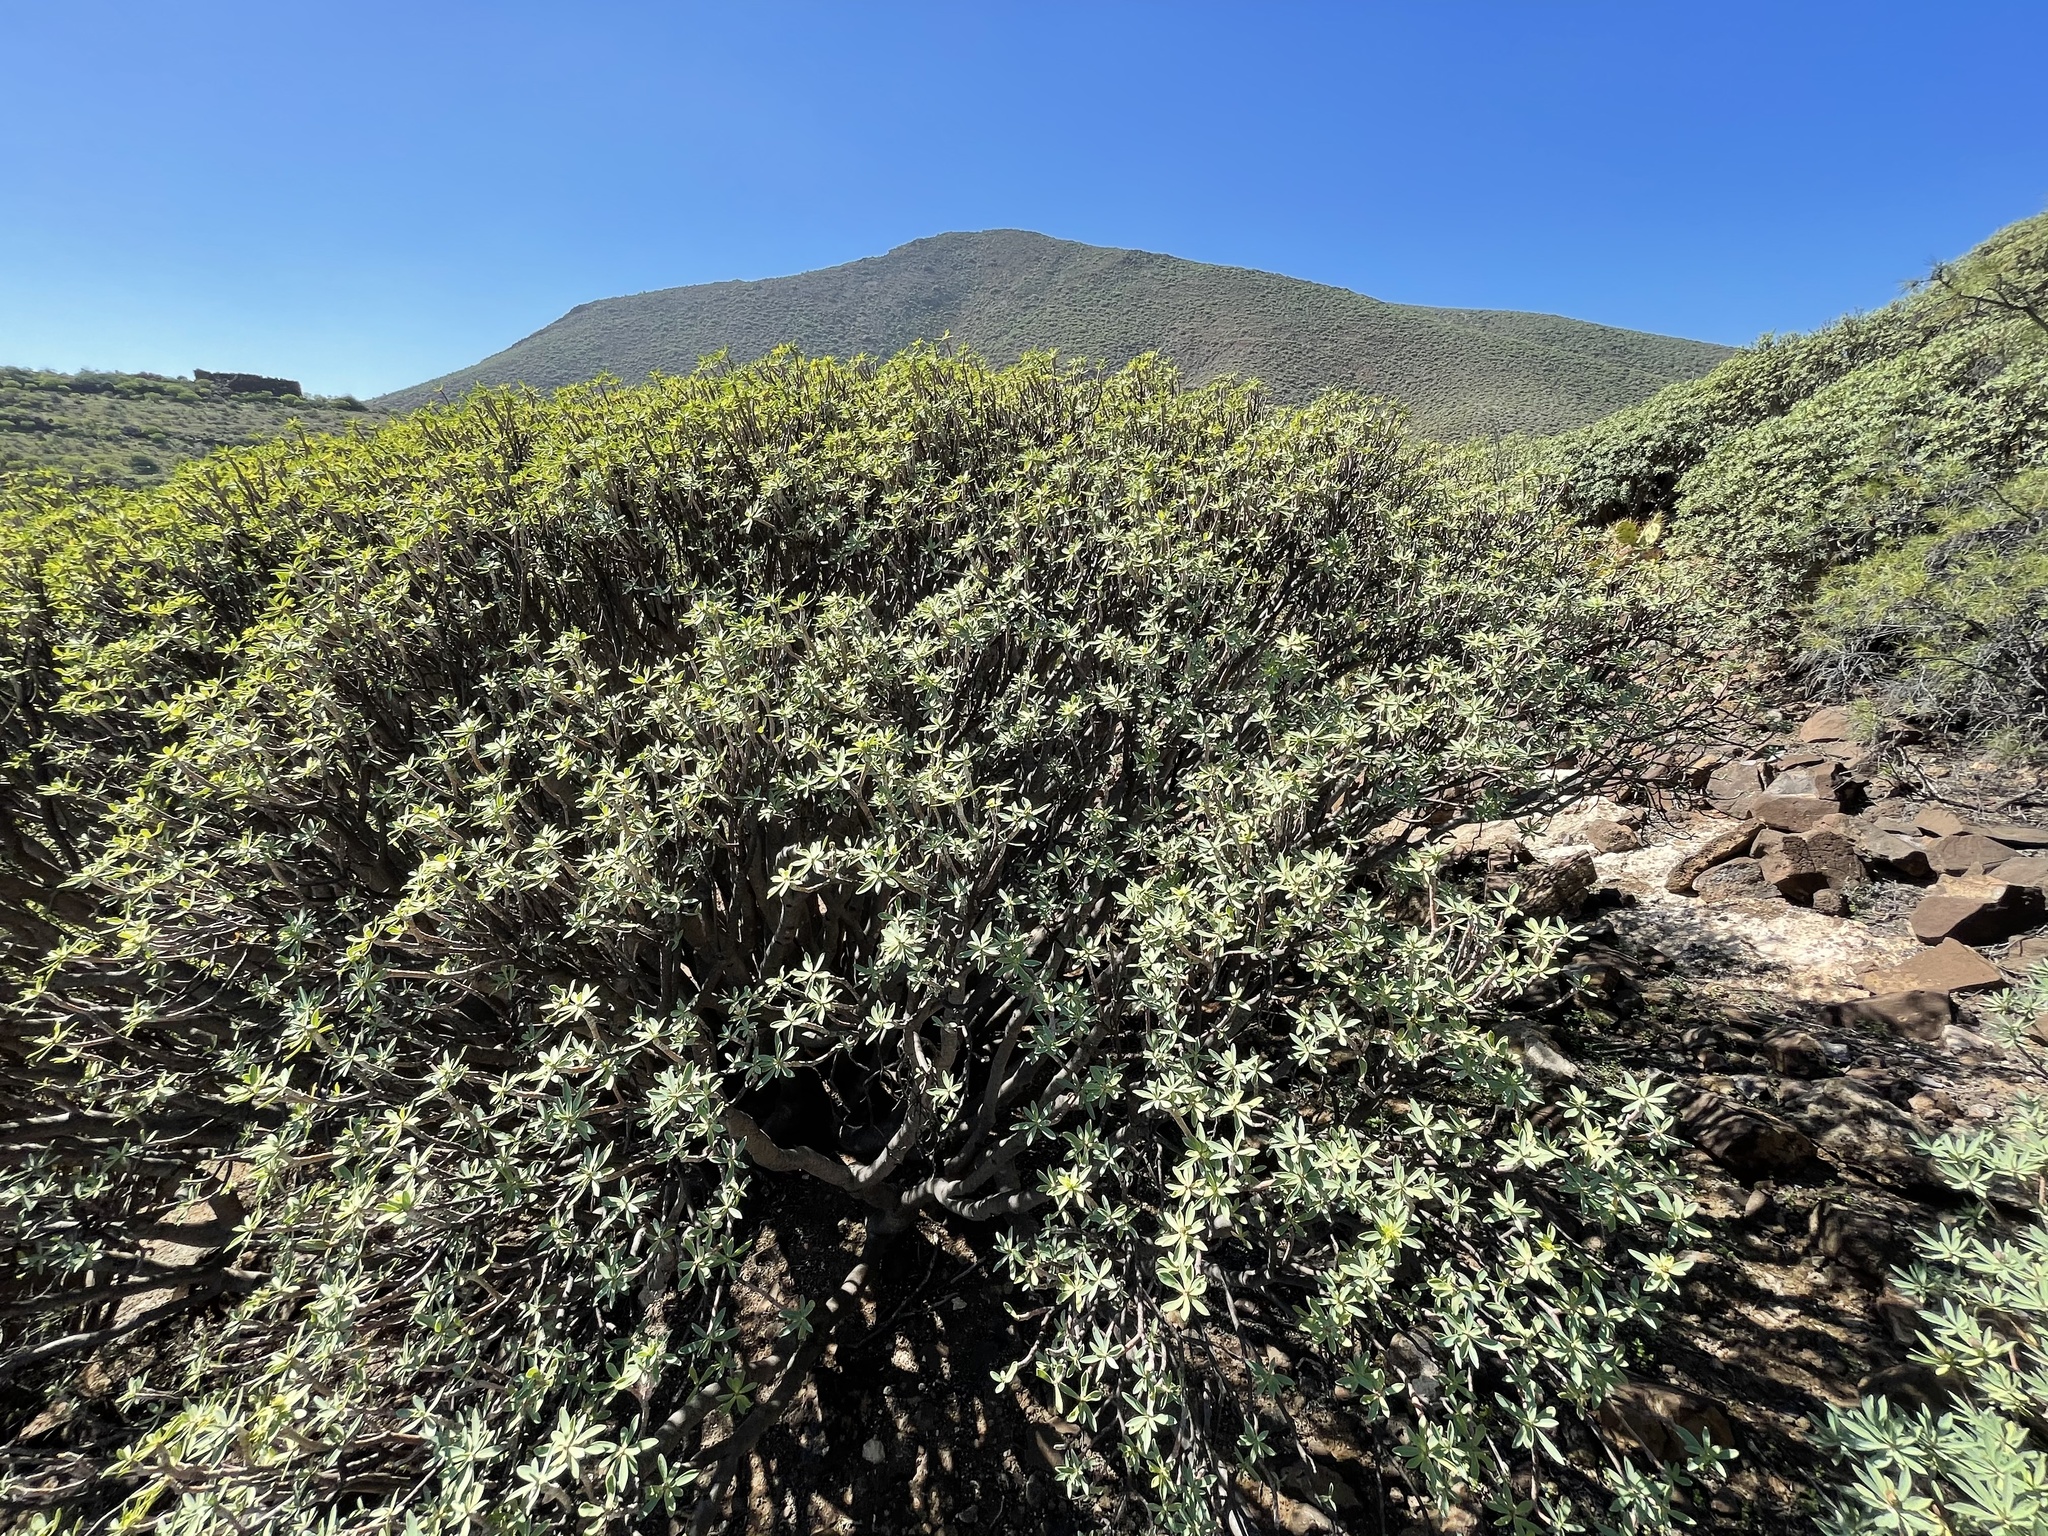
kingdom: Plantae
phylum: Tracheophyta
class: Magnoliopsida
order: Malpighiales
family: Euphorbiaceae
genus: Euphorbia
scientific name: Euphorbia balsamifera
